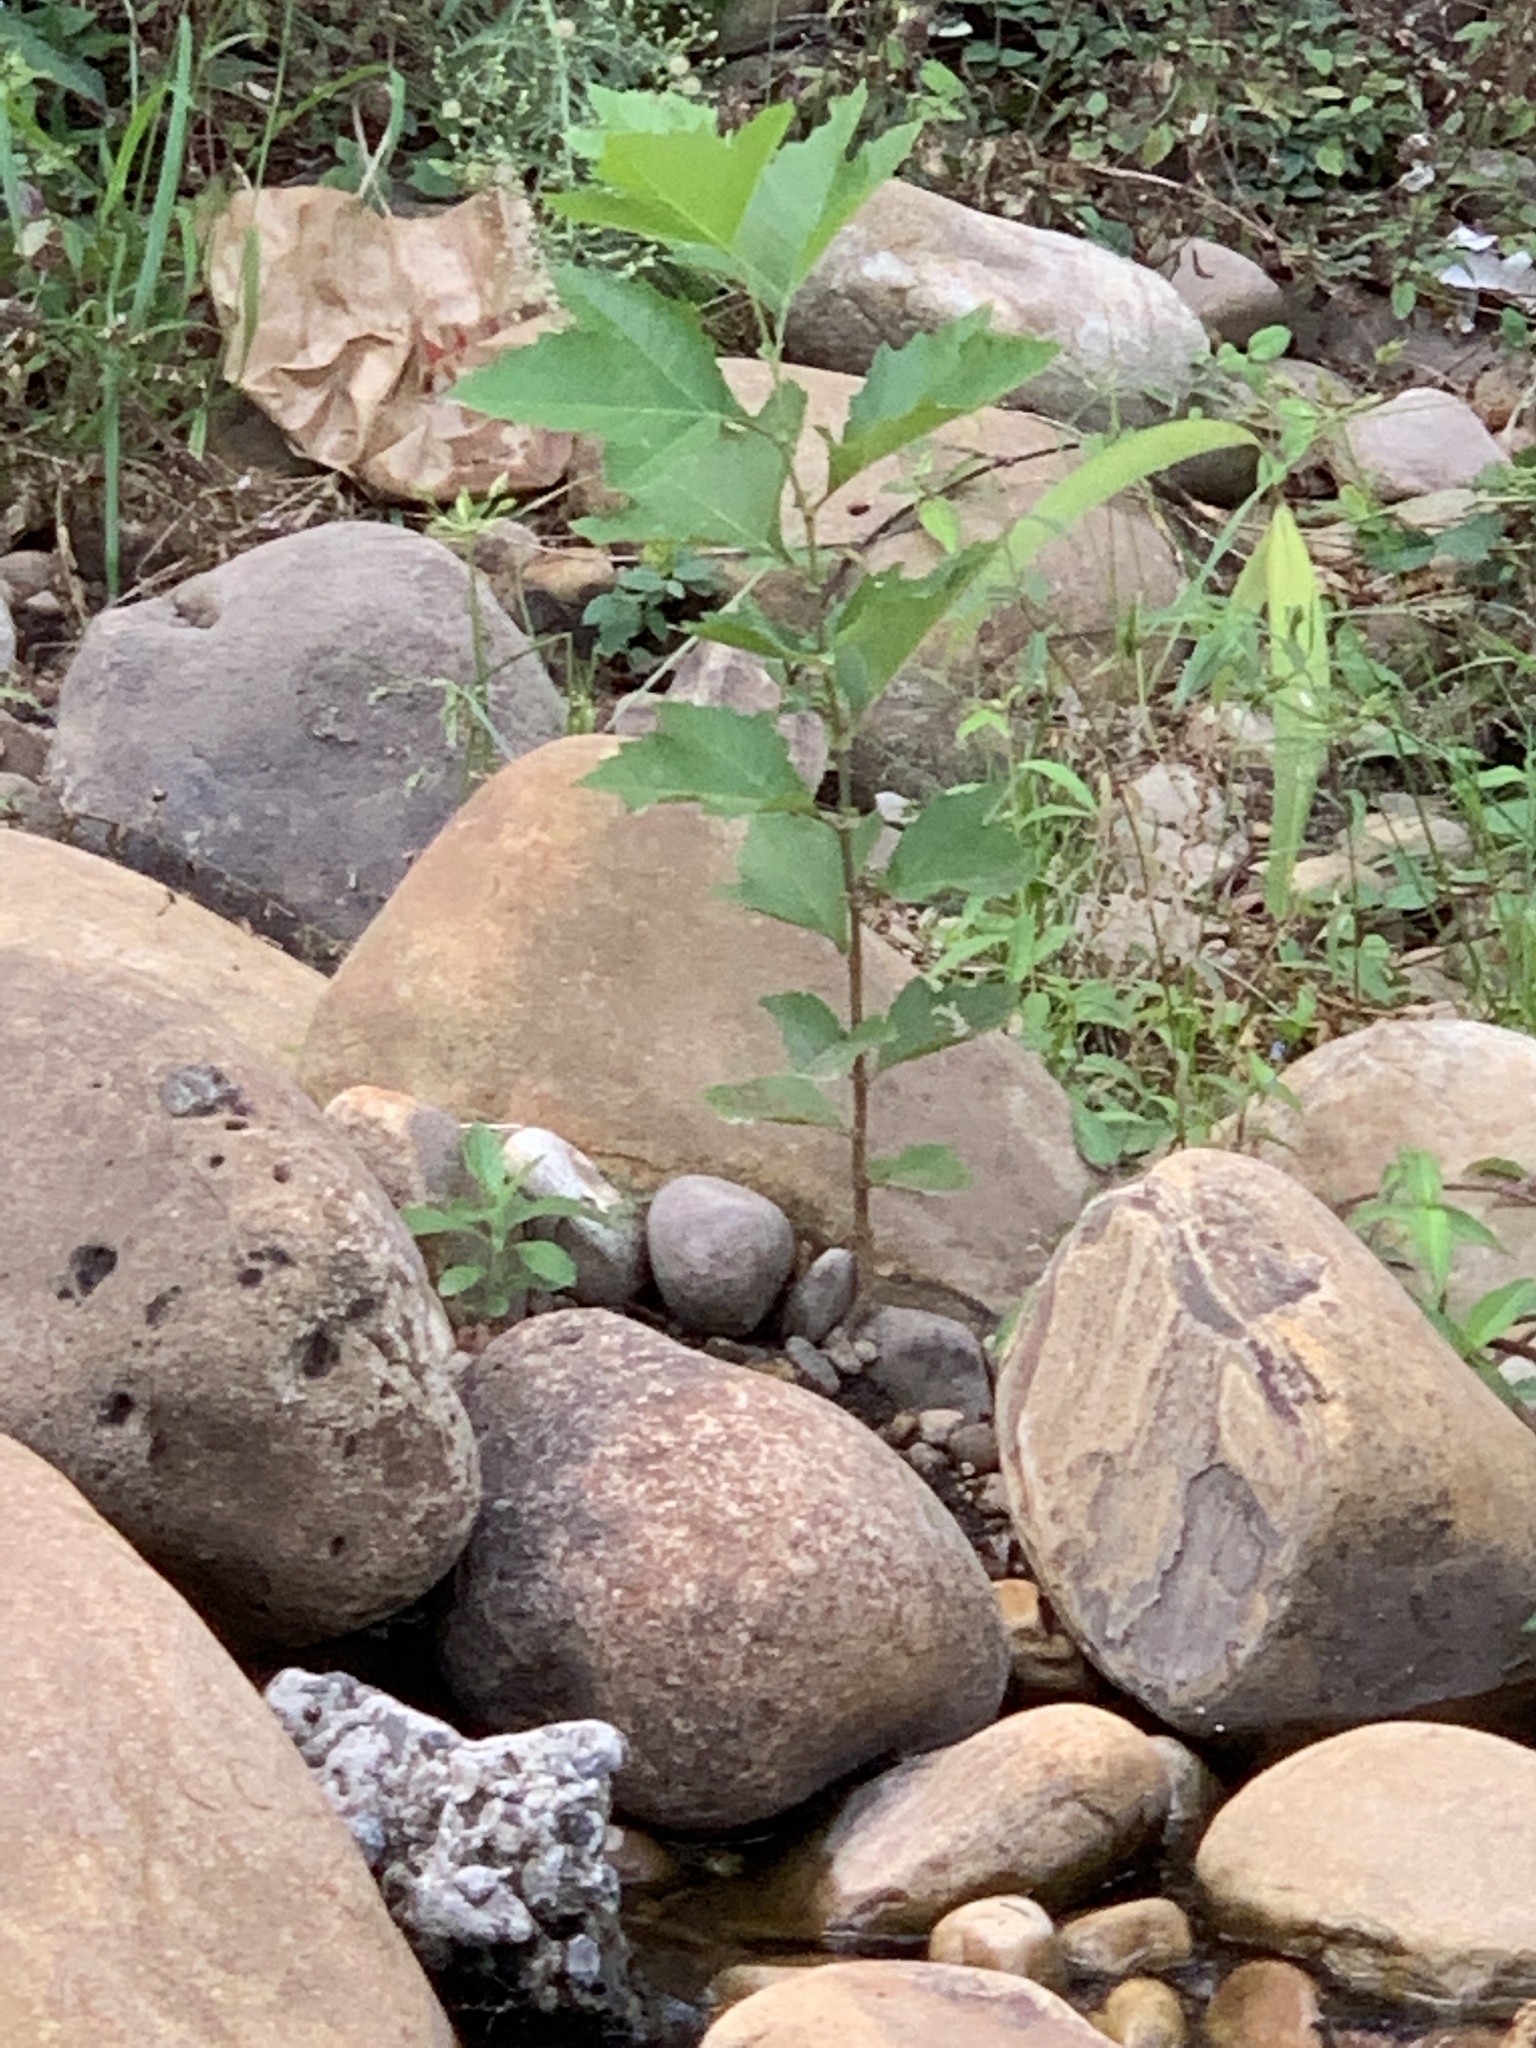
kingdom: Plantae
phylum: Tracheophyta
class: Magnoliopsida
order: Proteales
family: Platanaceae
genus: Platanus
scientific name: Platanus hispanica
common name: London plane
